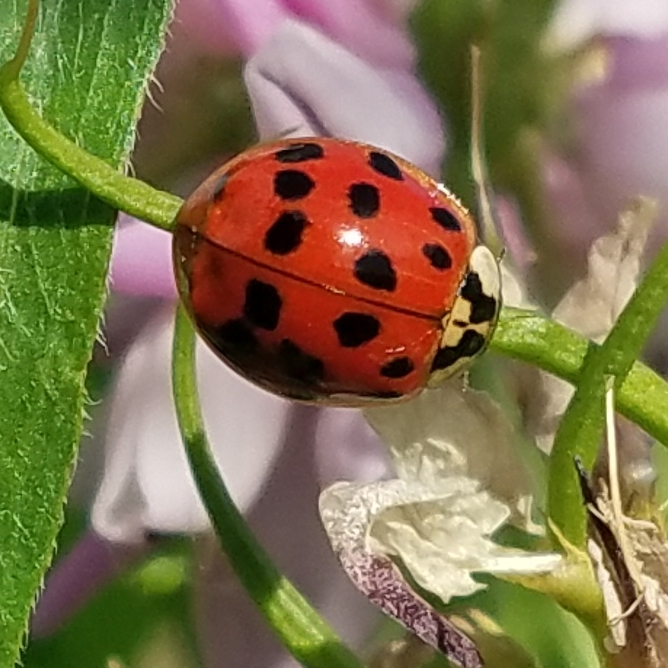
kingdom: Animalia
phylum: Arthropoda
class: Insecta
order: Coleoptera
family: Coccinellidae
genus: Harmonia
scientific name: Harmonia axyridis
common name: Harlequin ladybird
